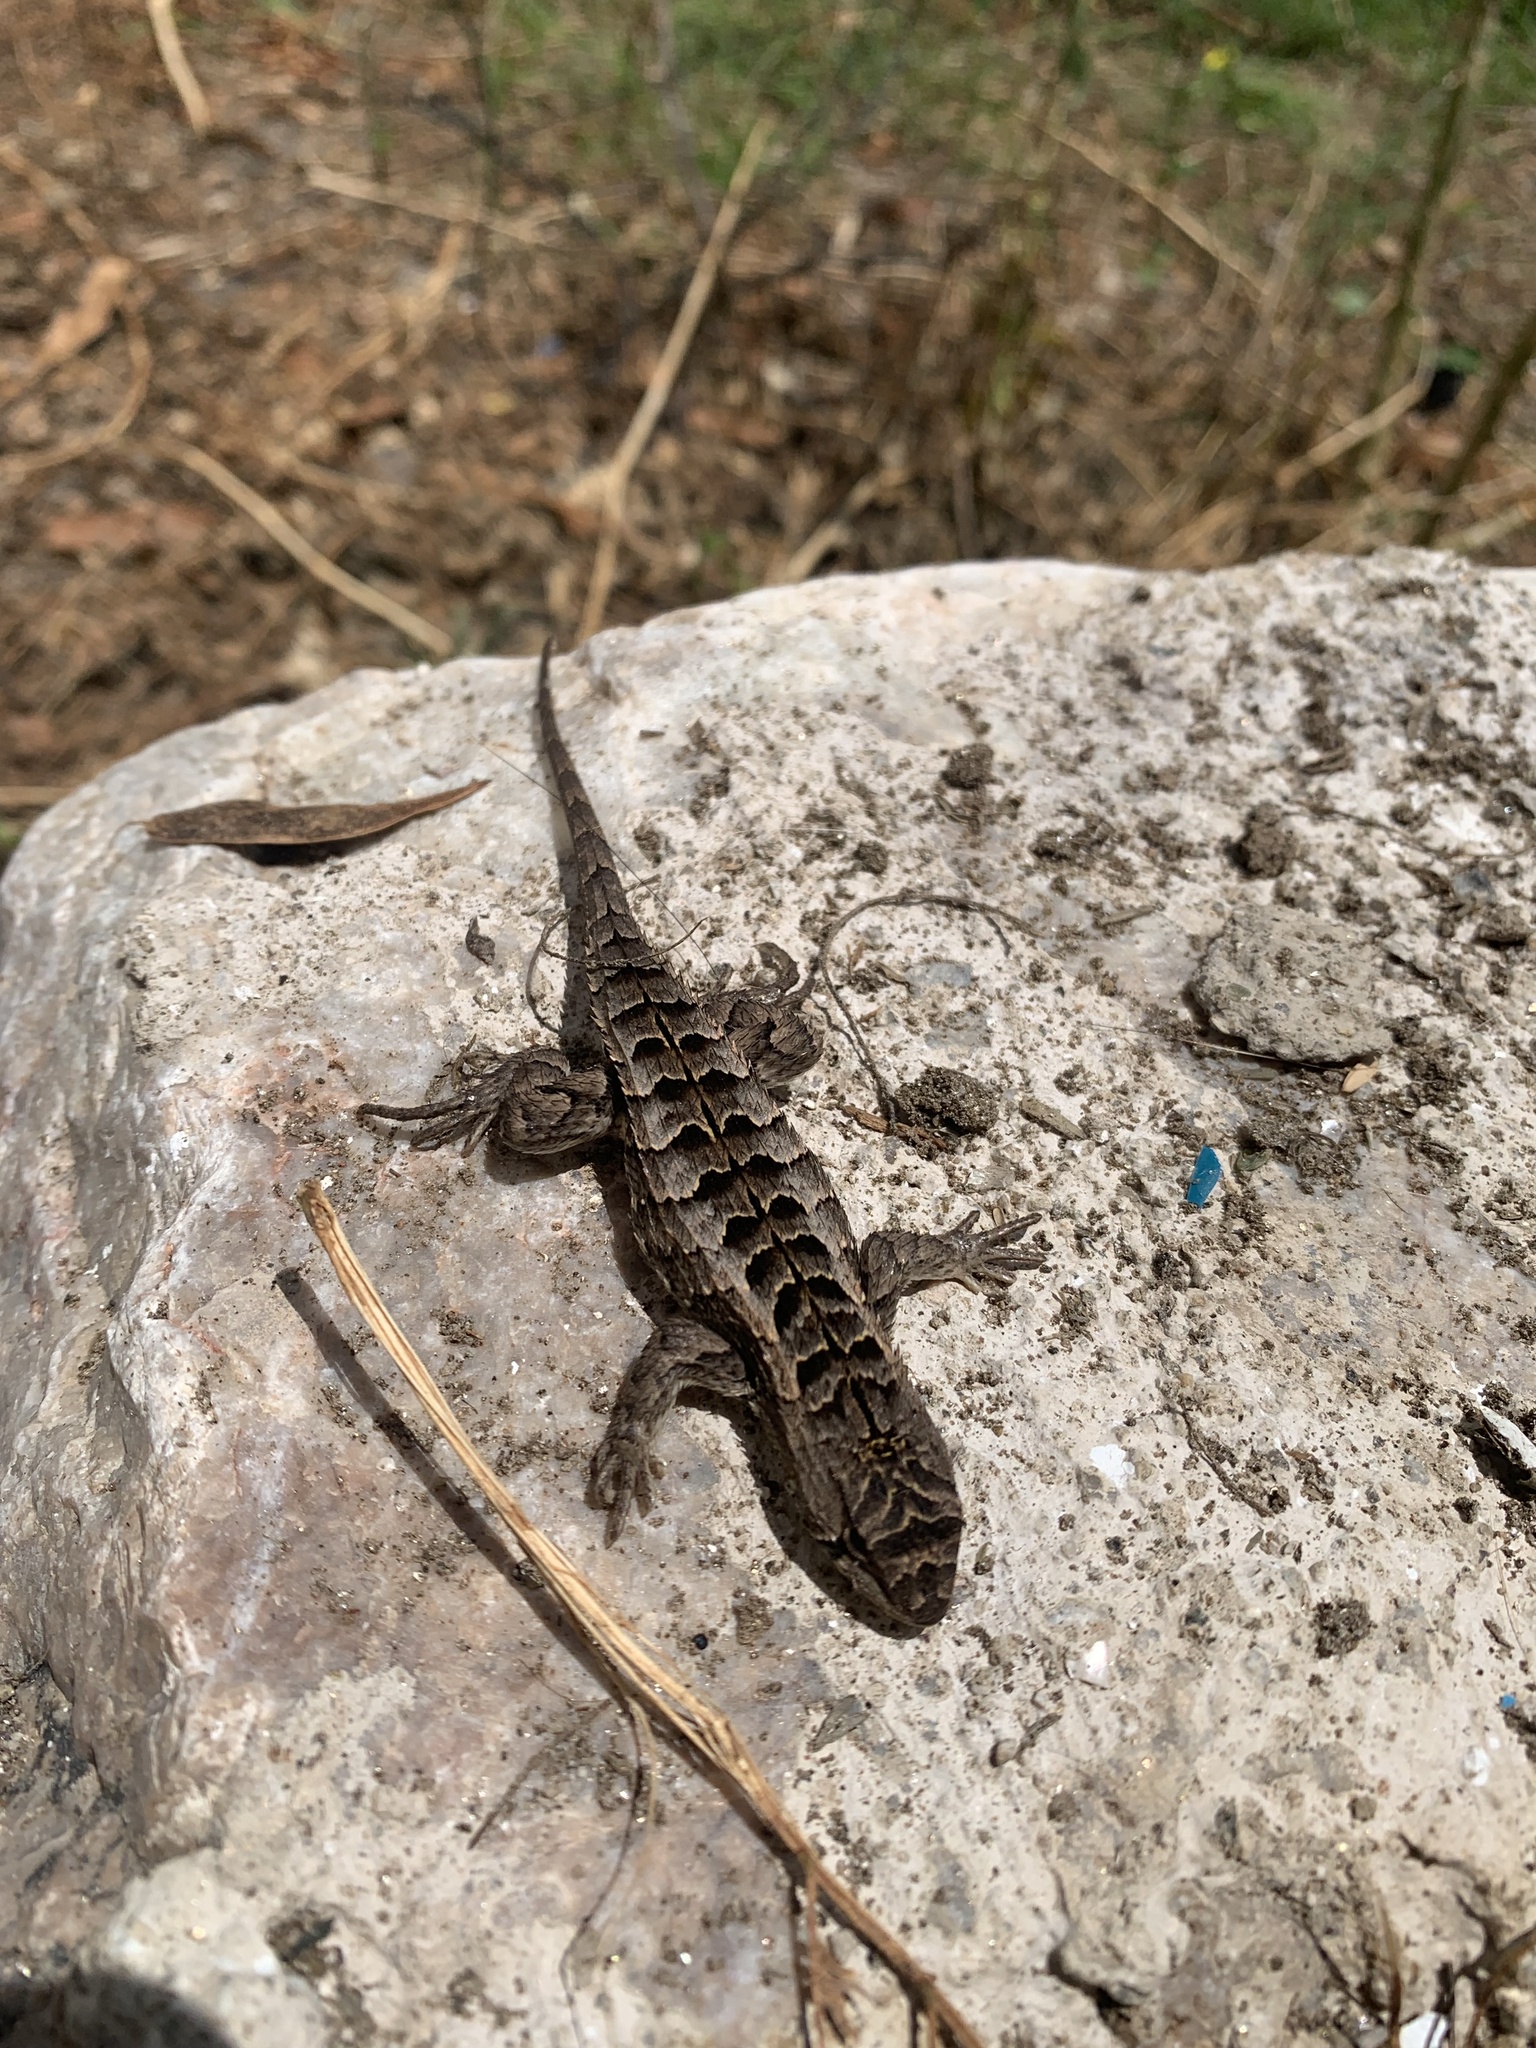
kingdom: Animalia
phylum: Chordata
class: Squamata
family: Tropiduridae
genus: Stenocercus
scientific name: Stenocercus doellojuradoi
